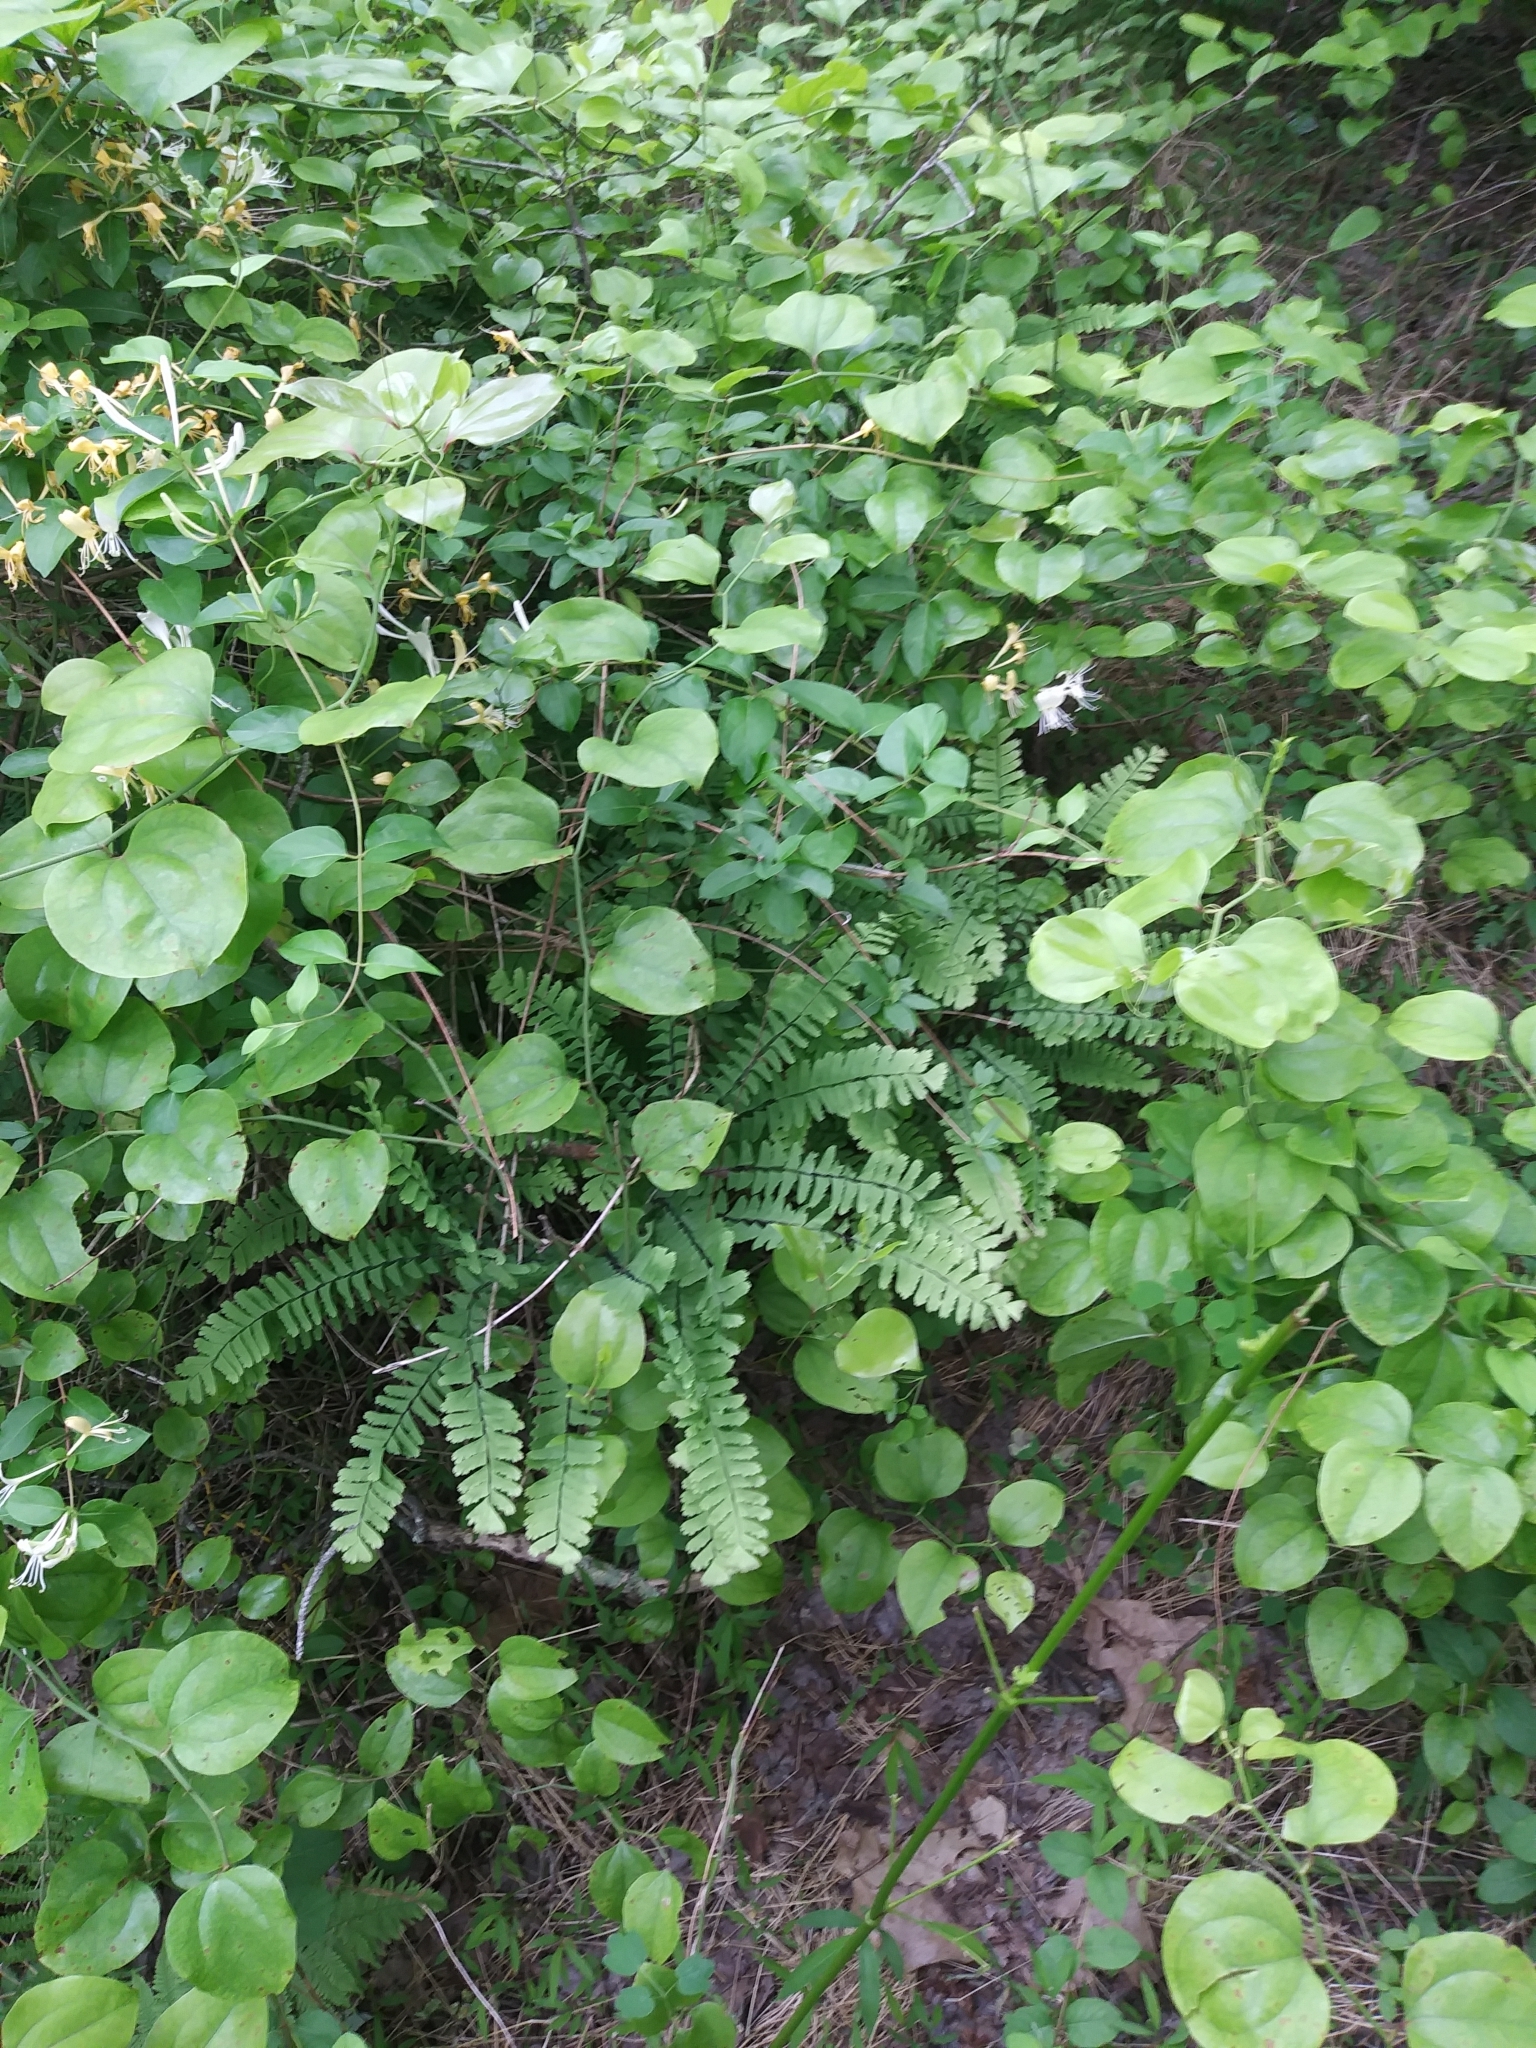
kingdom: Plantae
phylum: Tracheophyta
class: Polypodiopsida
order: Polypodiales
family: Pteridaceae
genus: Adiantum
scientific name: Adiantum pedatum
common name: Five-finger fern
